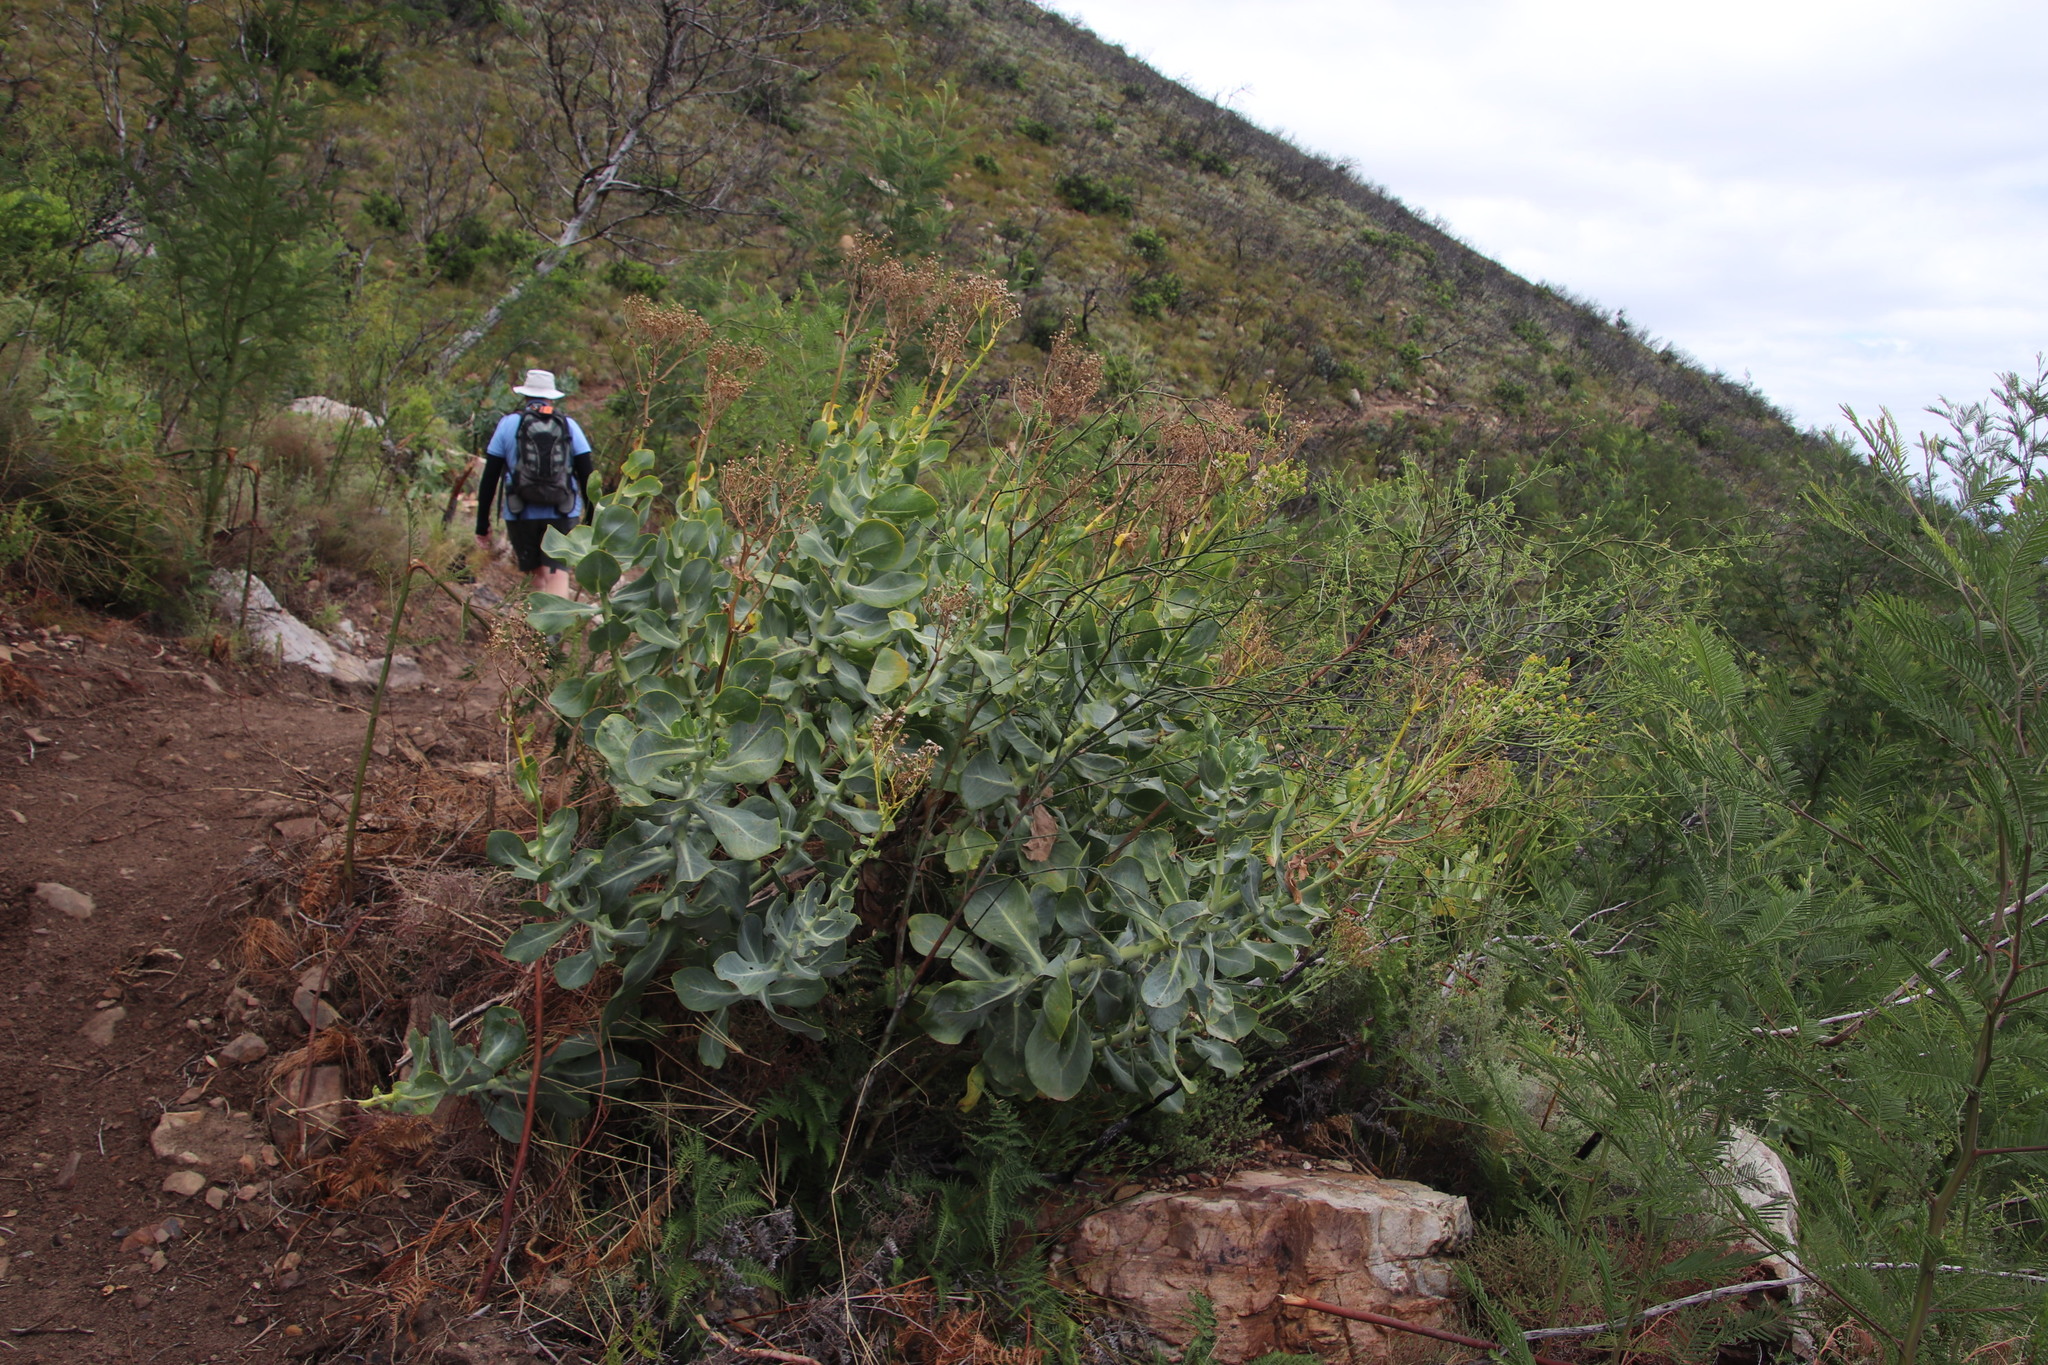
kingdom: Plantae
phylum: Tracheophyta
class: Magnoliopsida
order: Asterales
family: Asteraceae
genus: Othonna
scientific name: Othonna parviflora
